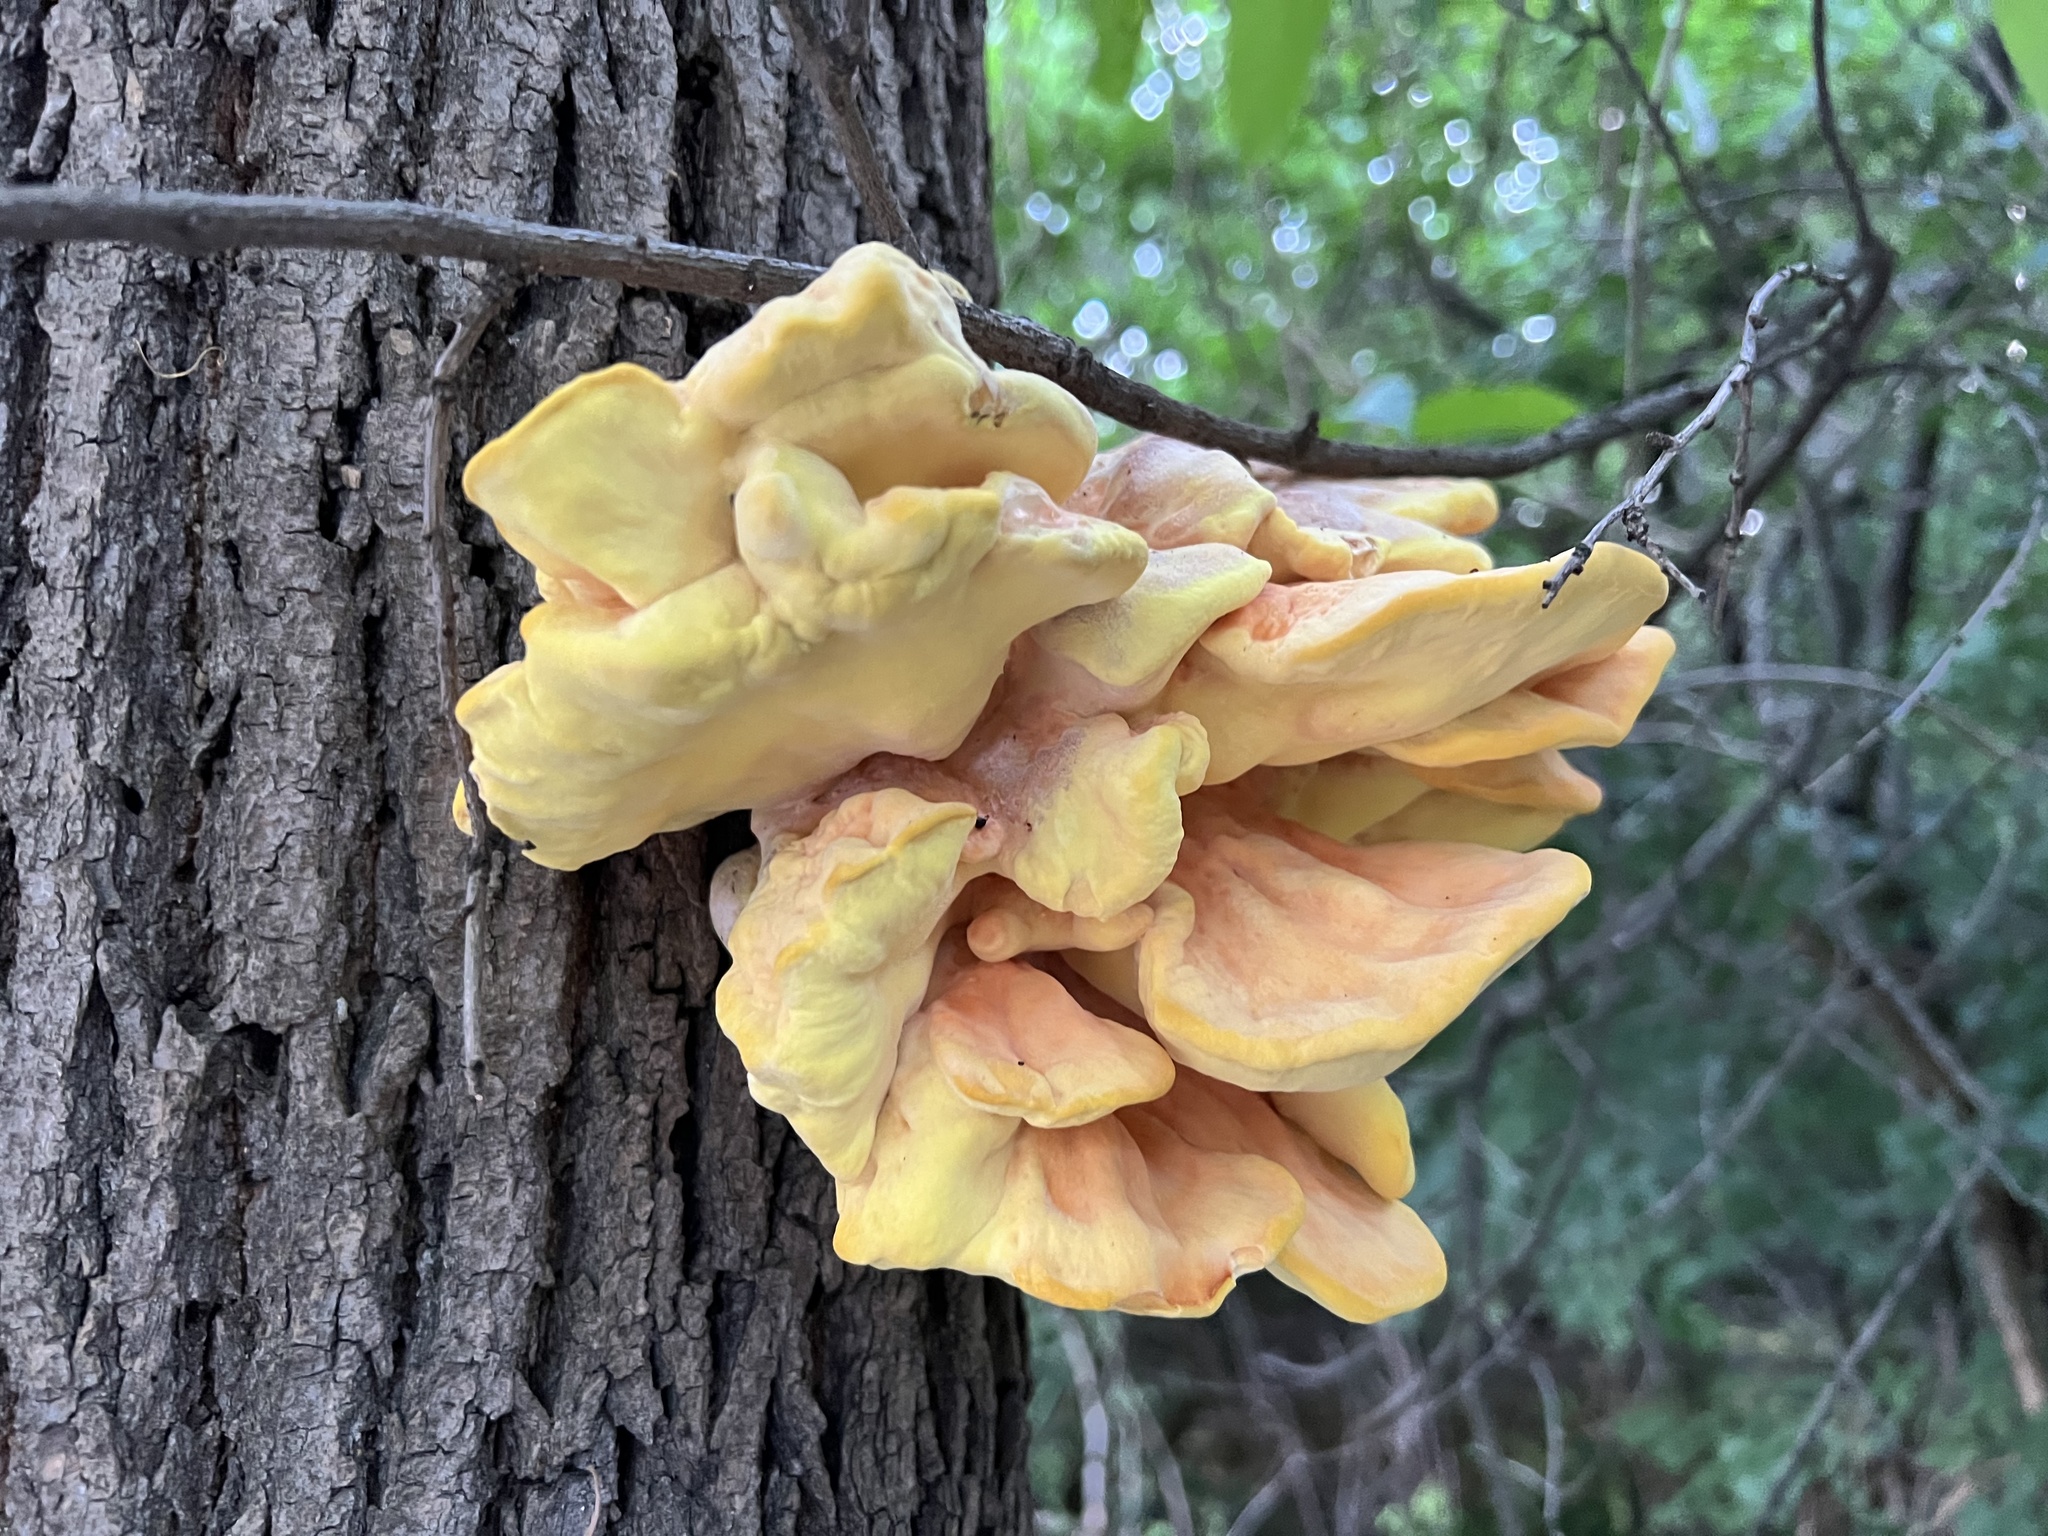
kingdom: Fungi
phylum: Basidiomycota
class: Agaricomycetes
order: Polyporales
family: Laetiporaceae
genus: Laetiporus
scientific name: Laetiporus sulphureus
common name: Chicken of the woods
